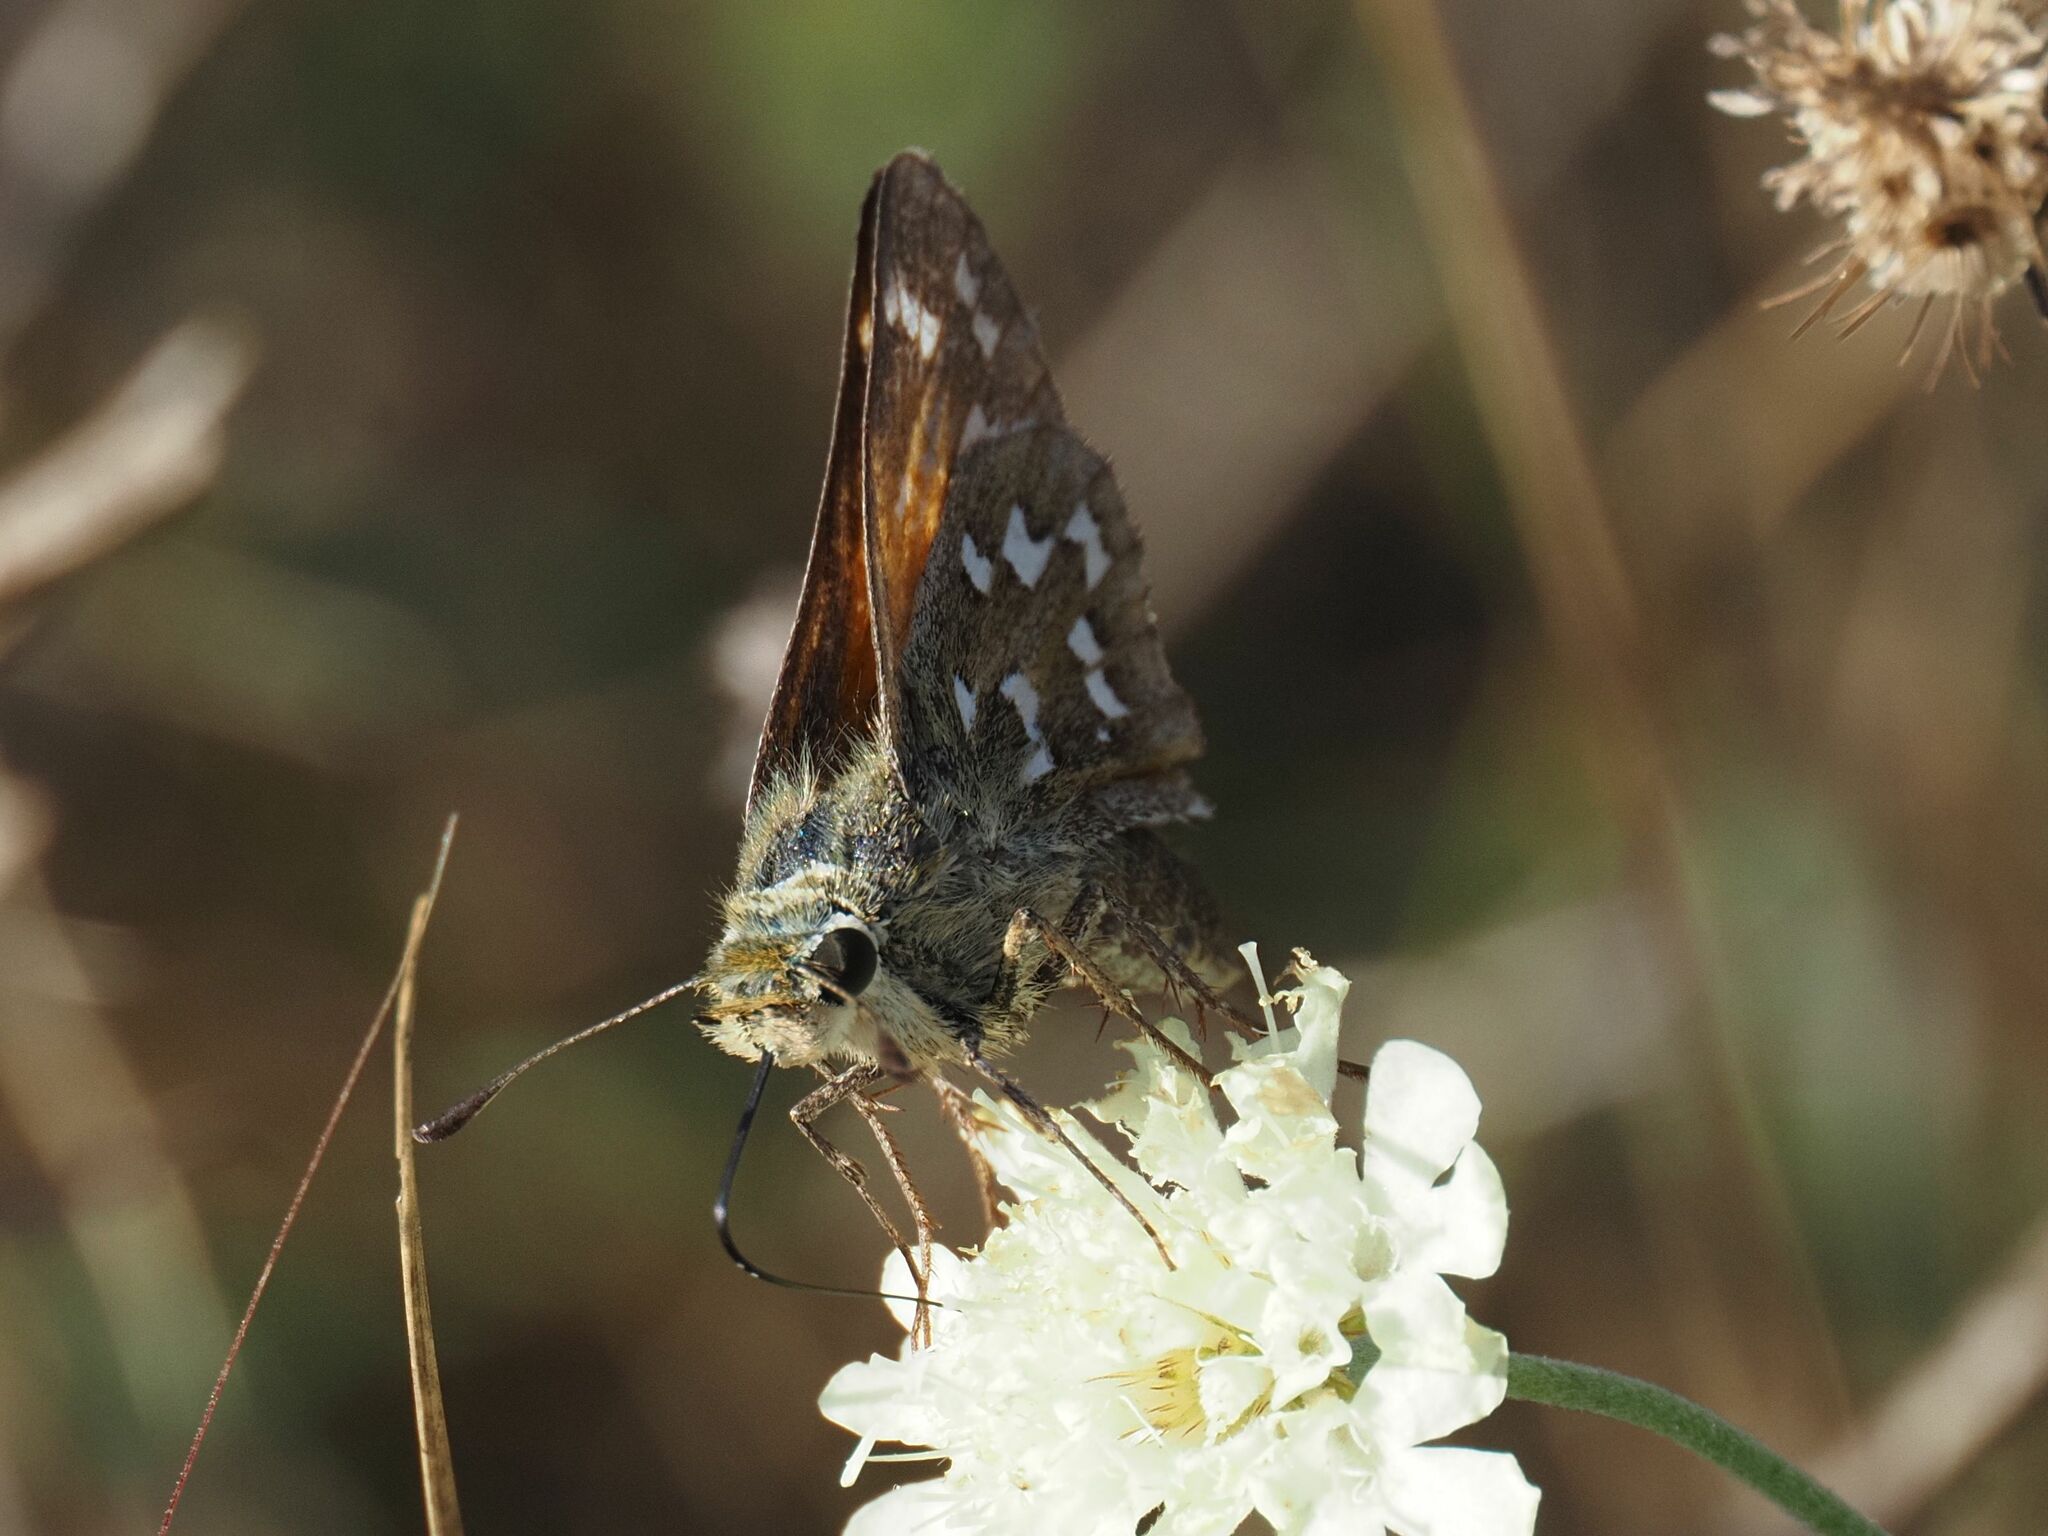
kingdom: Animalia
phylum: Arthropoda
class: Insecta
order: Lepidoptera
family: Hesperiidae
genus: Hesperia
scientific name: Hesperia comma
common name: Common branded skipper
